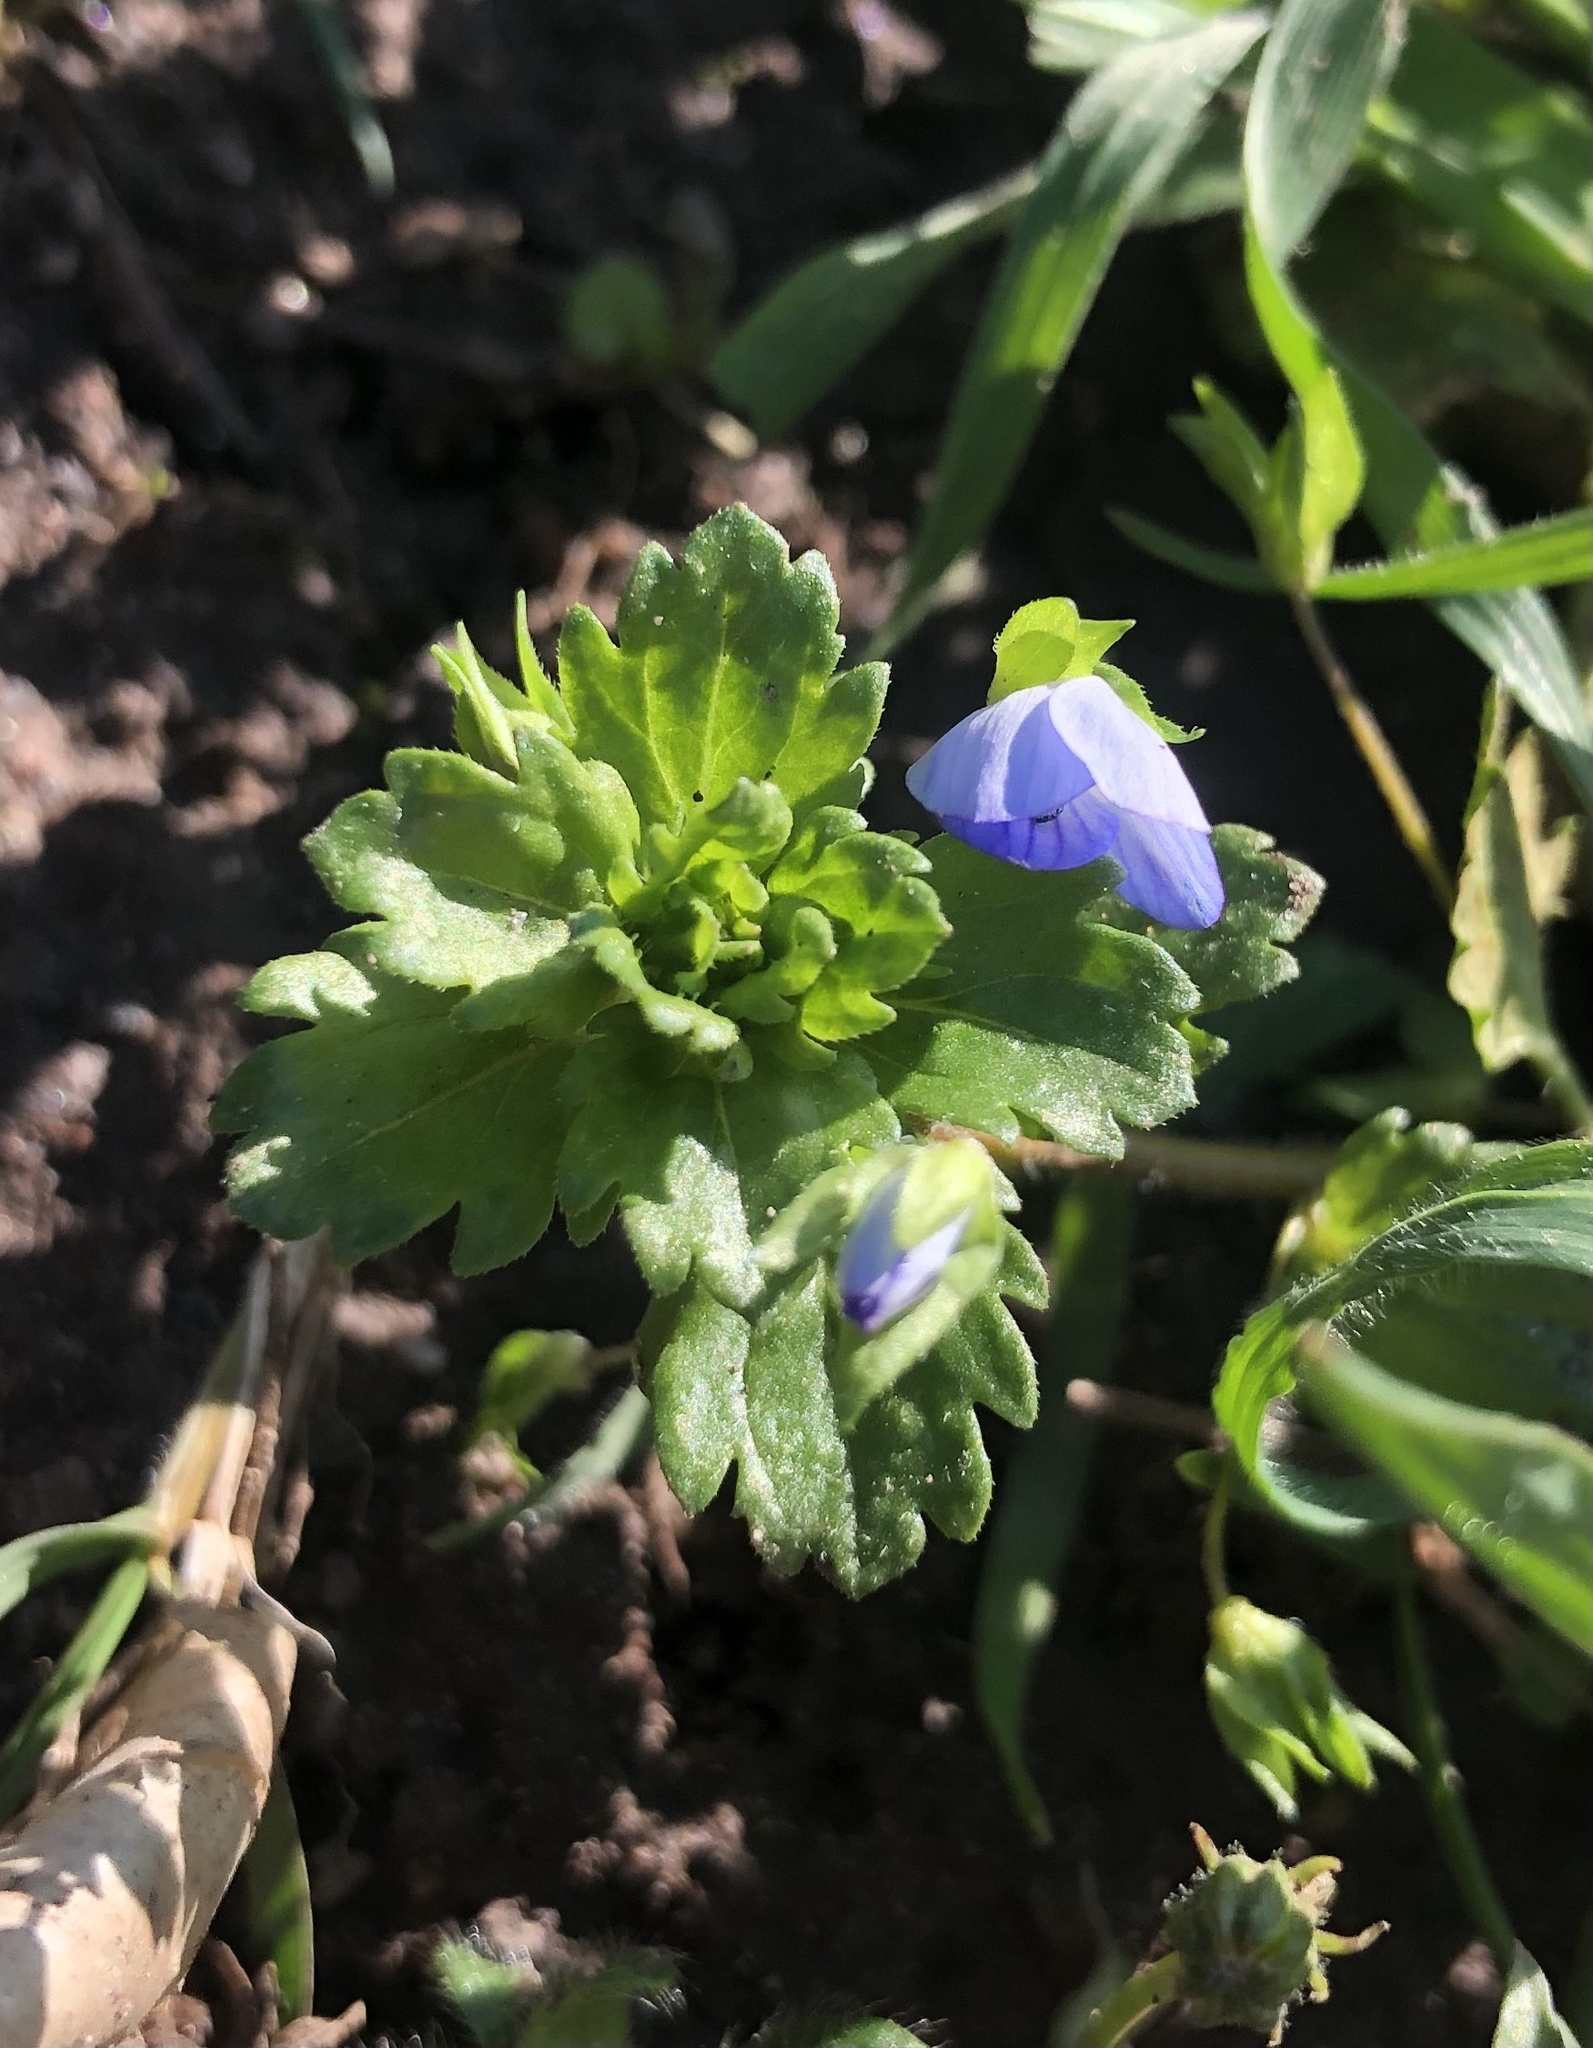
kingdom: Plantae
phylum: Tracheophyta
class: Magnoliopsida
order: Lamiales
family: Plantaginaceae
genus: Veronica
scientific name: Veronica persica
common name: Common field-speedwell
